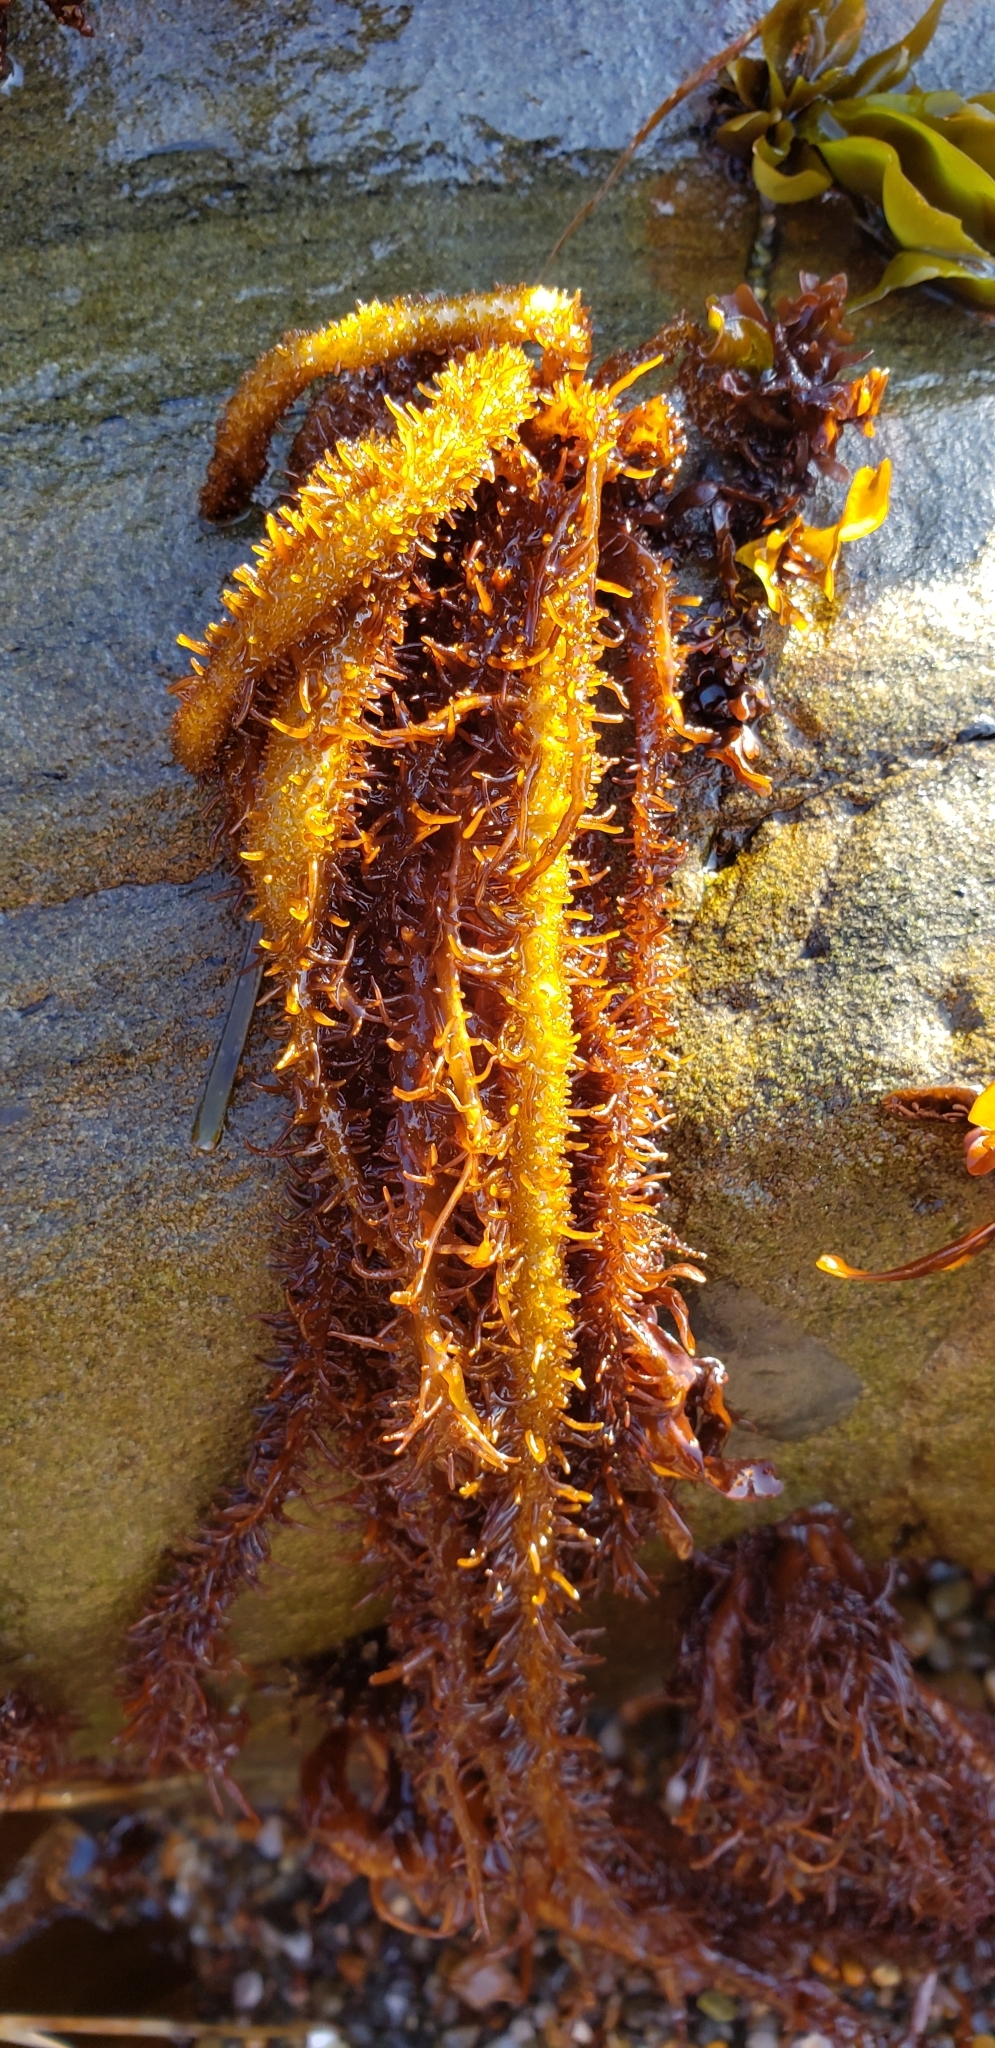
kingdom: Plantae
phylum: Rhodophyta
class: Florideophyceae
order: Nemaliales
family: Liagoraceae
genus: Cumagloia
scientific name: Cumagloia andersonii
